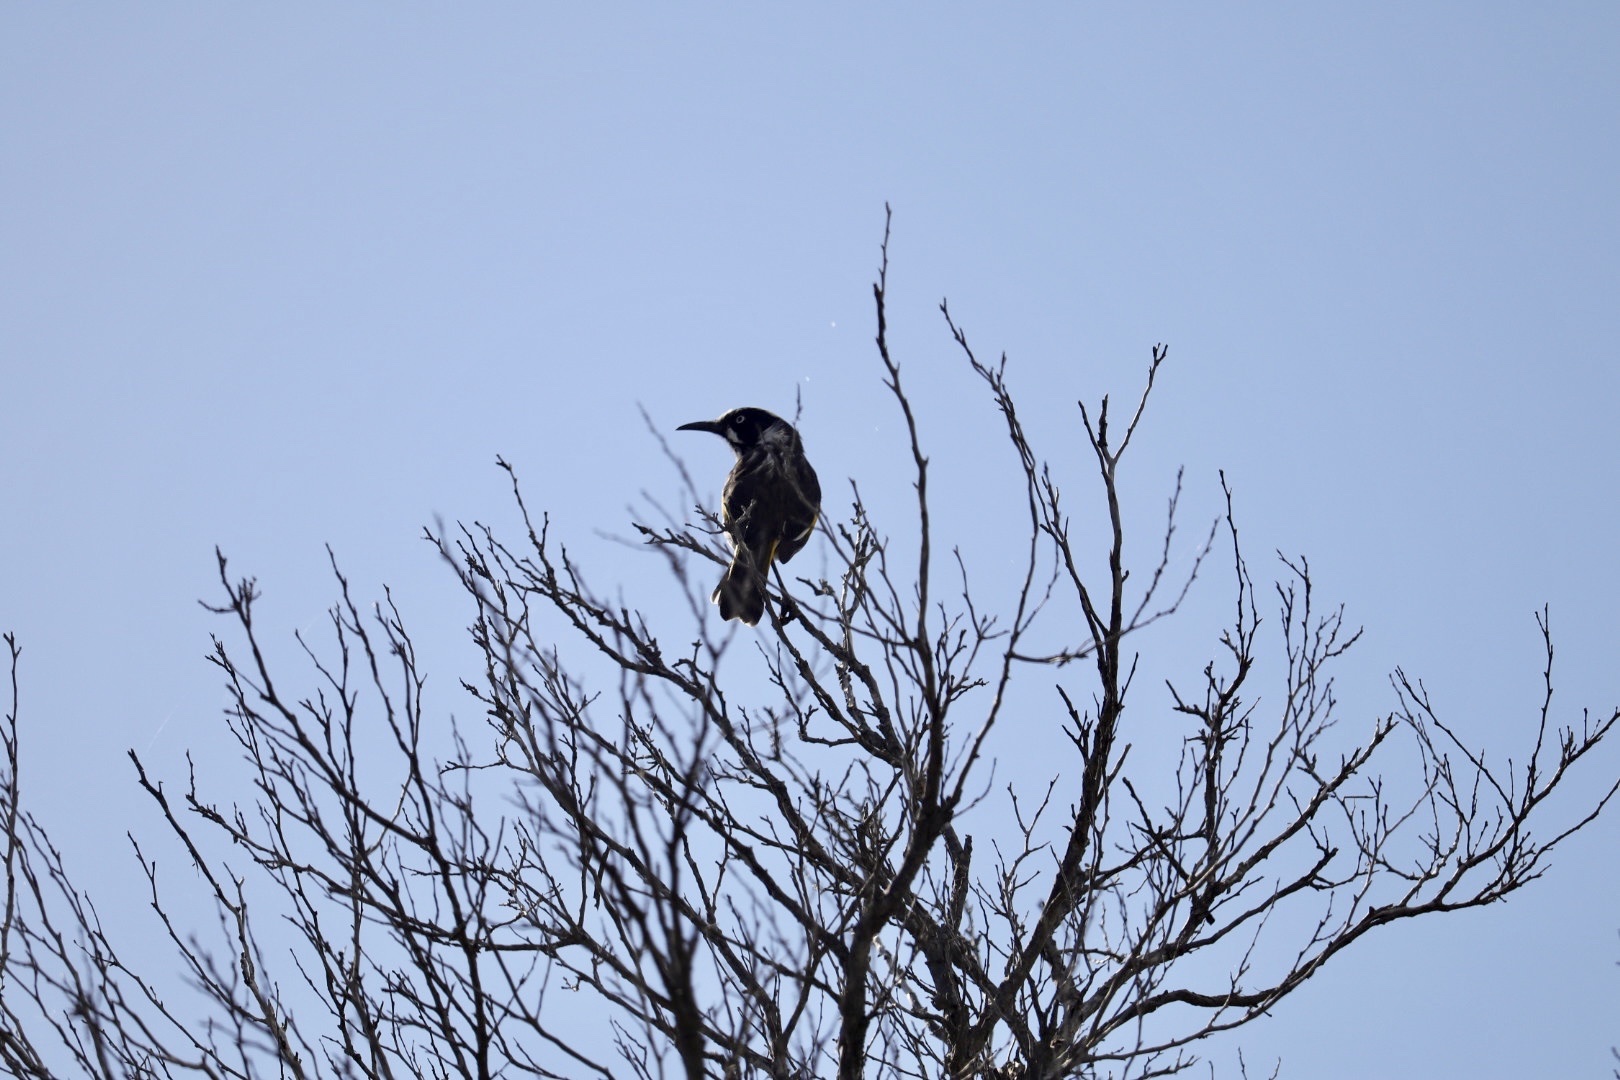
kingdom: Animalia
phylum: Chordata
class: Aves
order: Passeriformes
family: Meliphagidae
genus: Phylidonyris
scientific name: Phylidonyris novaehollandiae
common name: New holland honeyeater
